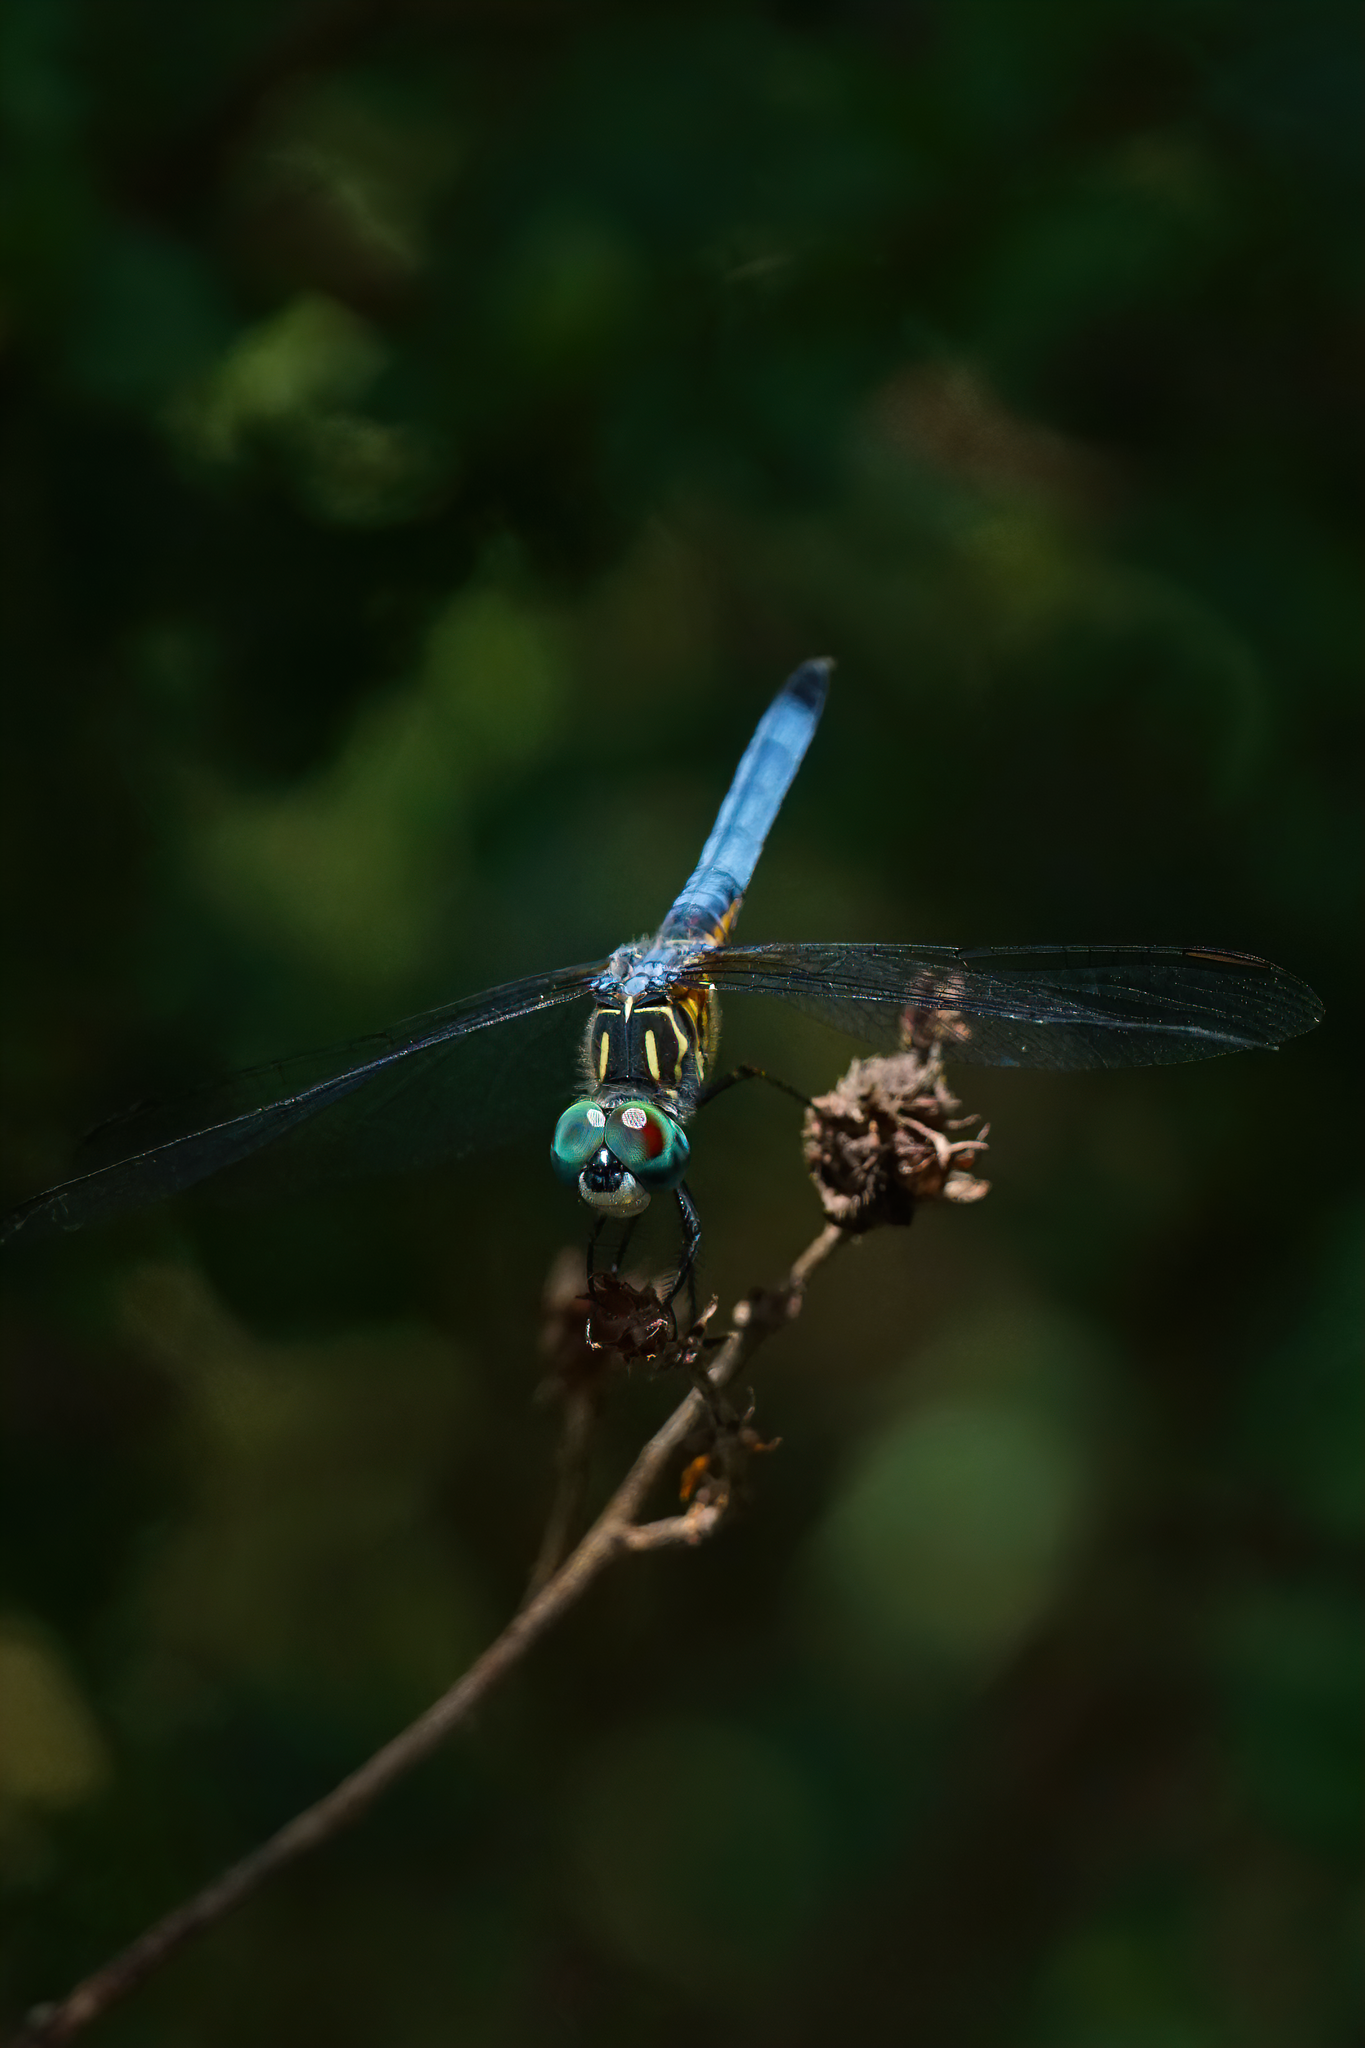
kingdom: Animalia
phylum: Arthropoda
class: Insecta
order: Odonata
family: Libellulidae
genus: Pachydiplax
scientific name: Pachydiplax longipennis
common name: Blue dasher
